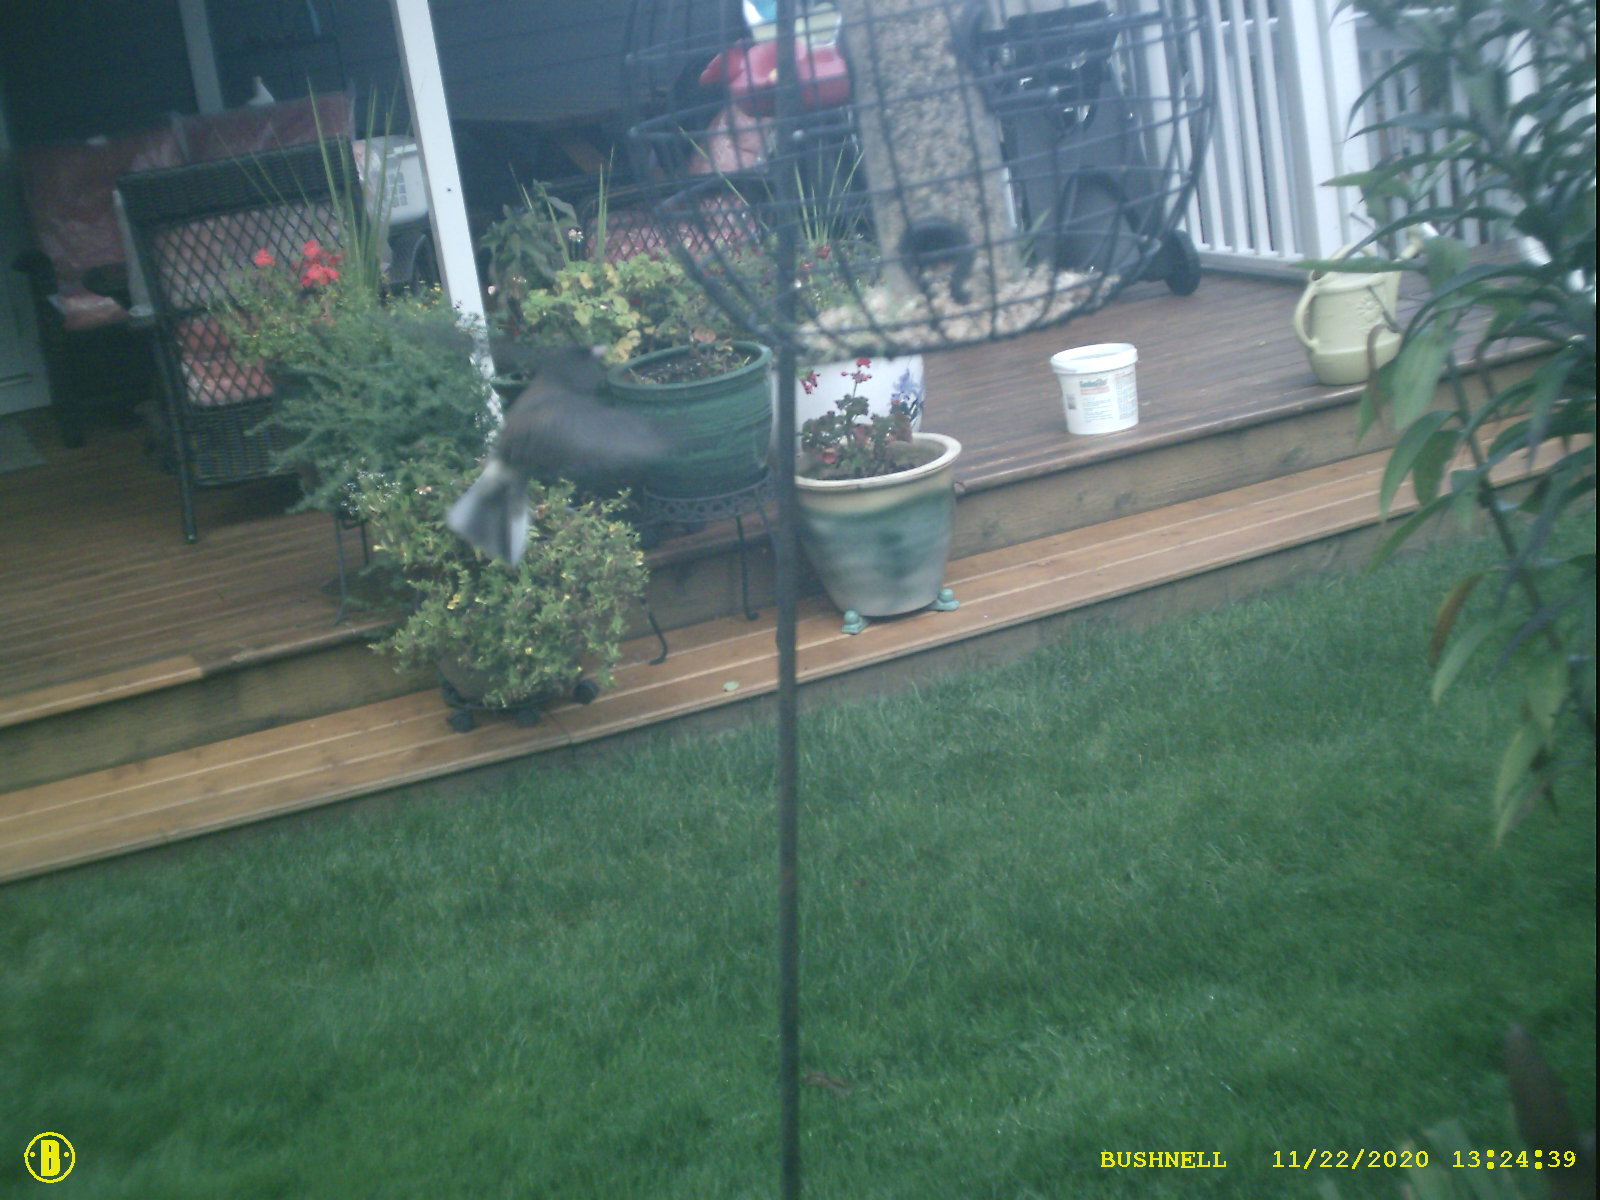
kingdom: Animalia
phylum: Chordata
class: Aves
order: Passeriformes
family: Passerellidae
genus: Junco
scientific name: Junco hyemalis
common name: Dark-eyed junco
